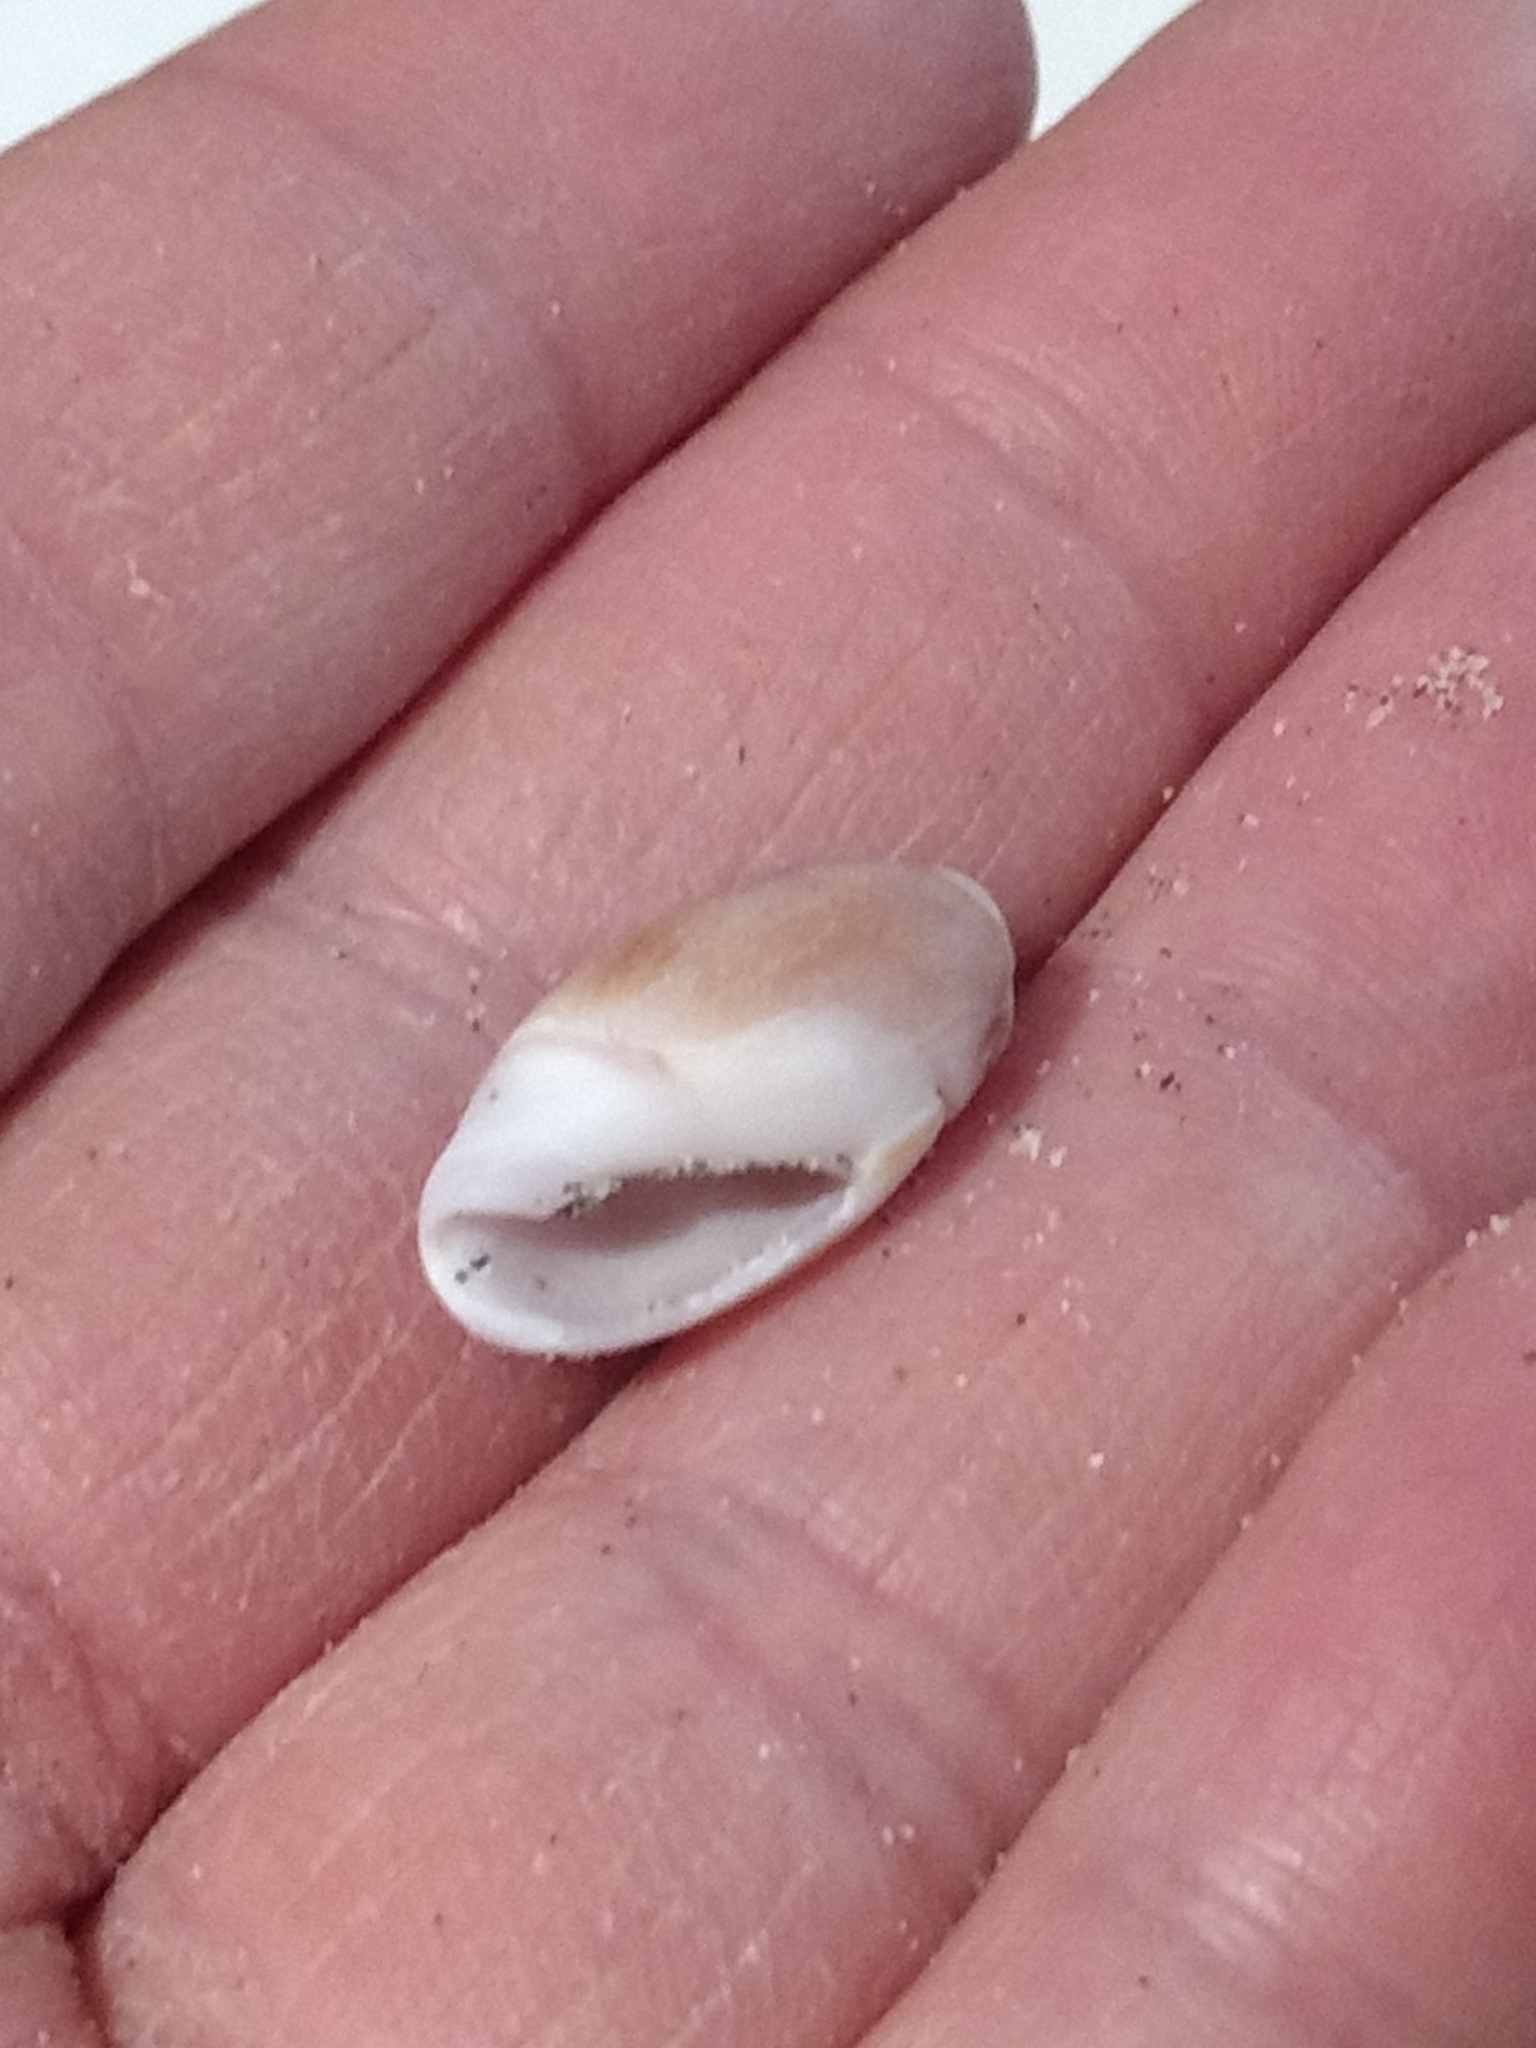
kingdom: Animalia
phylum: Mollusca
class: Gastropoda
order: Neogastropoda
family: Olividae
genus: Callianax
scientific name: Callianax biplicata
